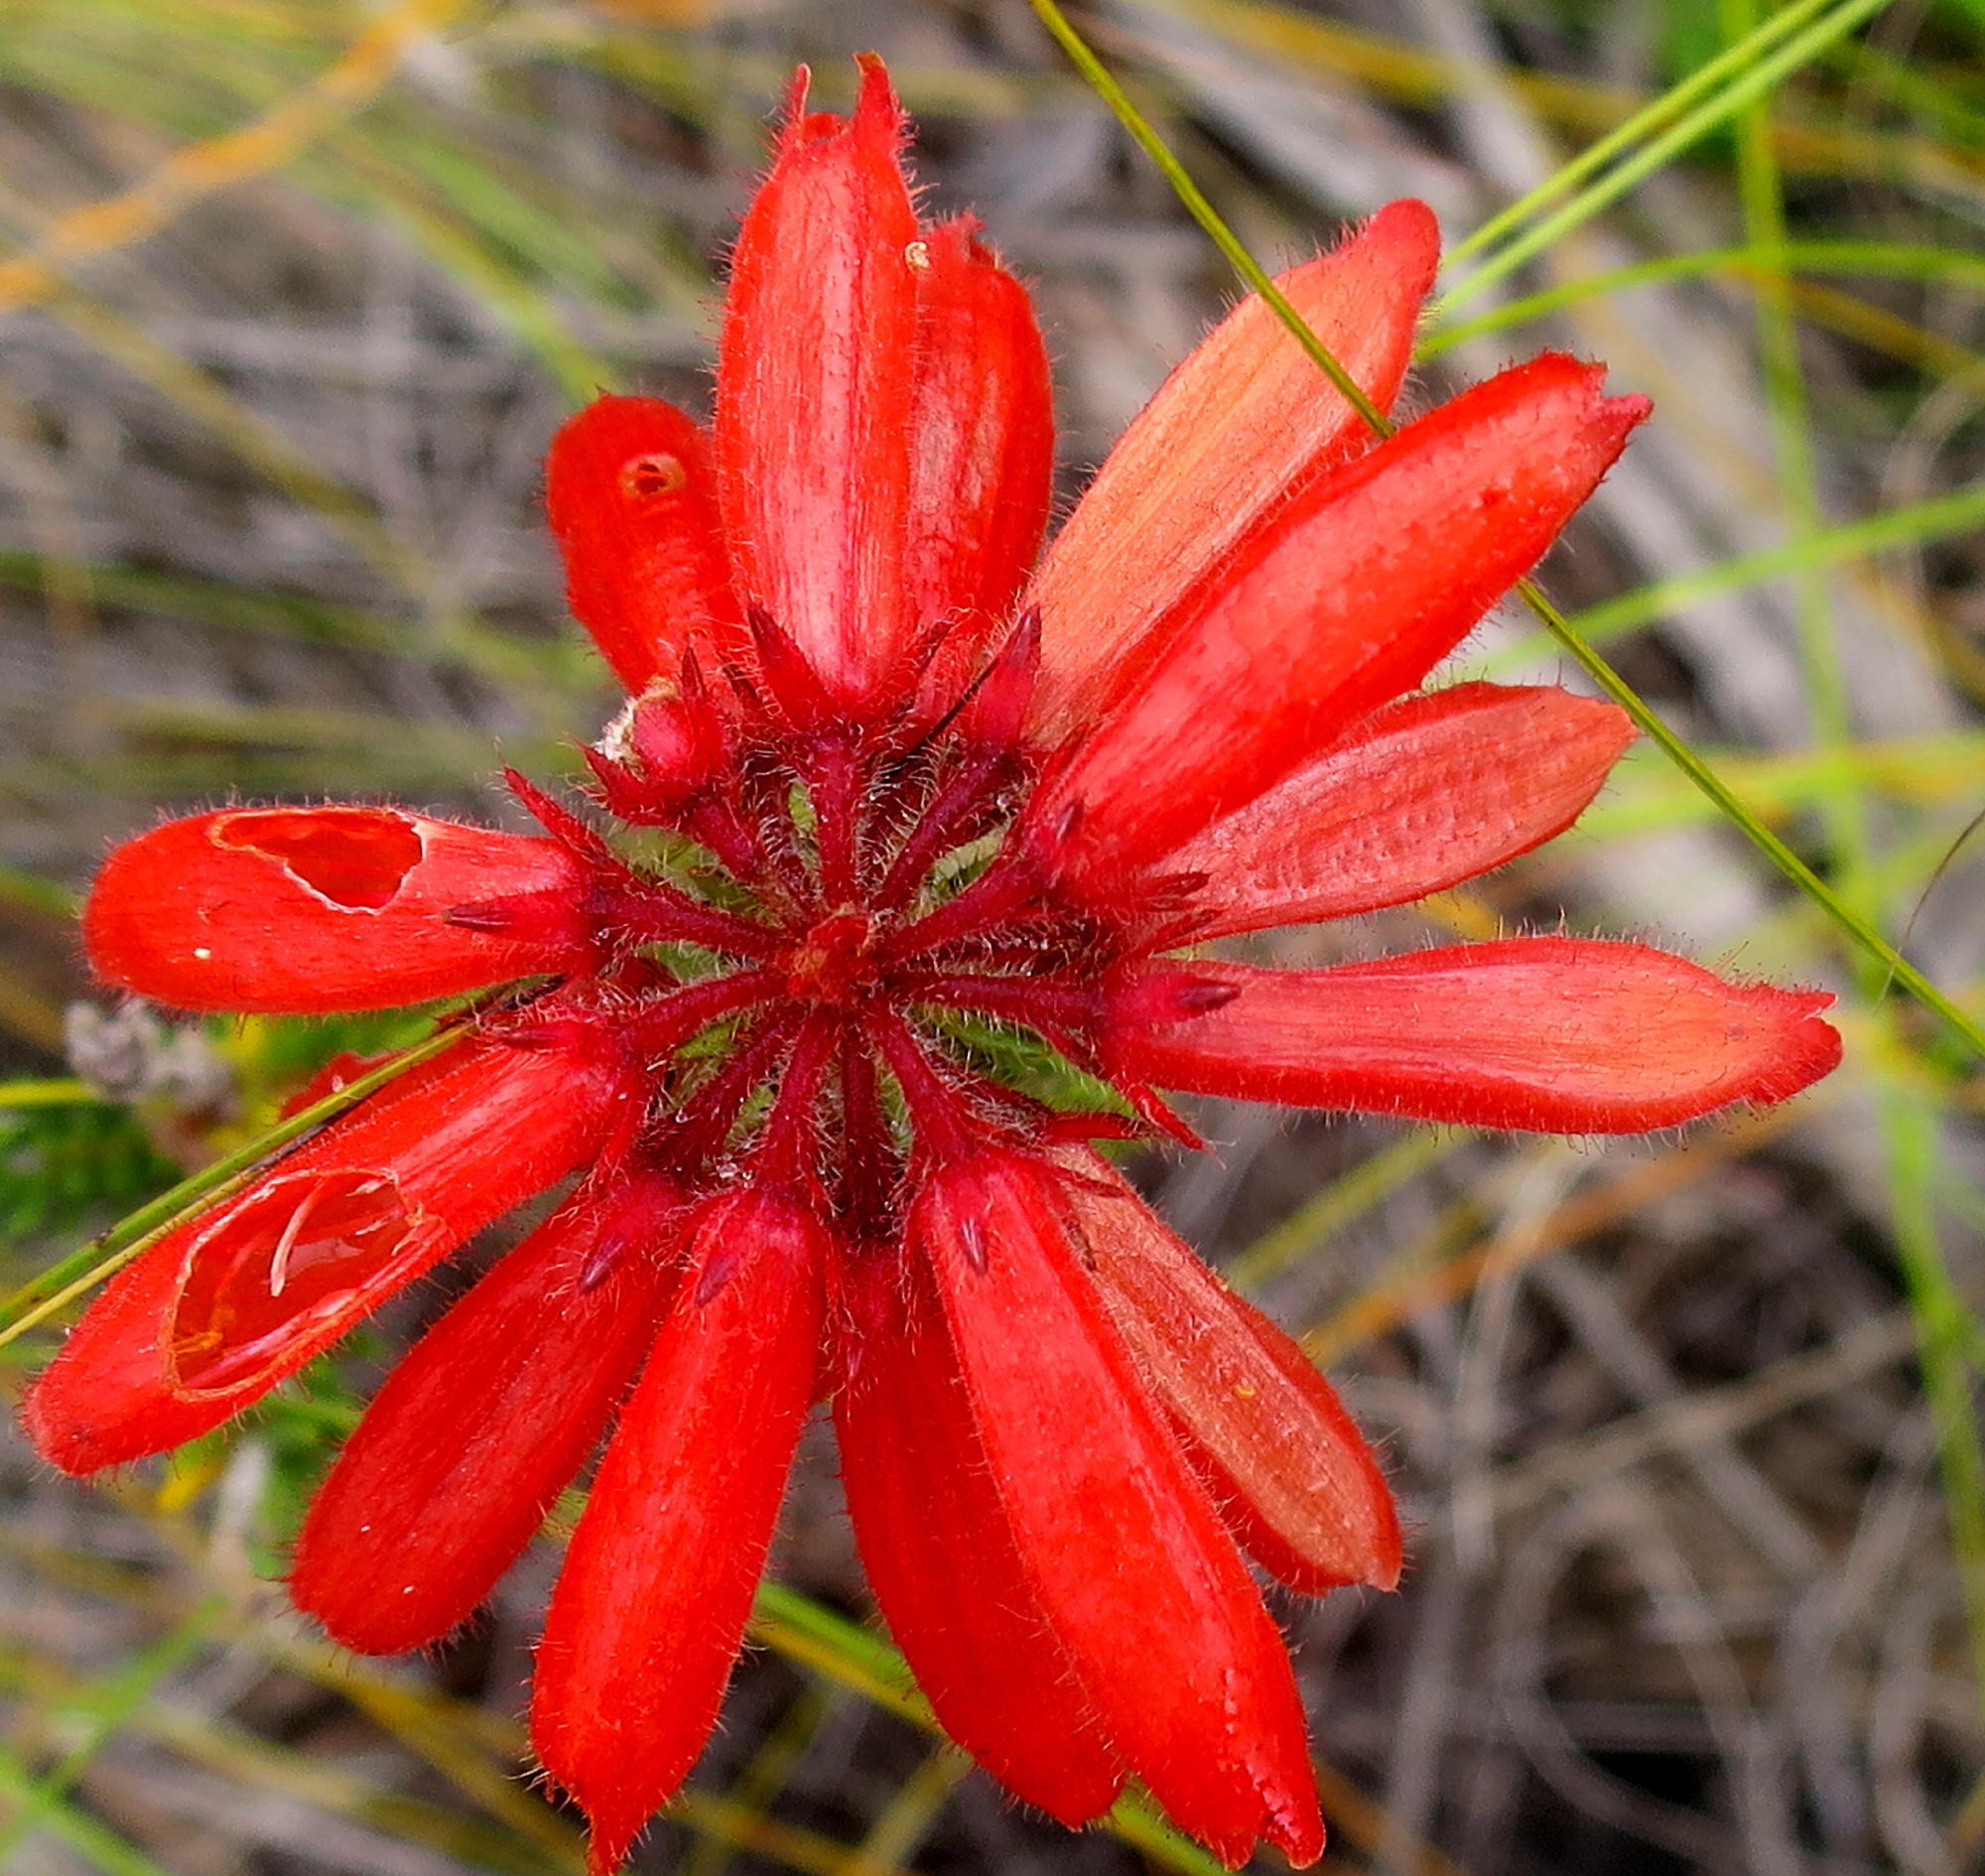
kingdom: Plantae
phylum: Tracheophyta
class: Magnoliopsida
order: Ericales
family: Ericaceae
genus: Erica
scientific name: Erica cerinthoides
